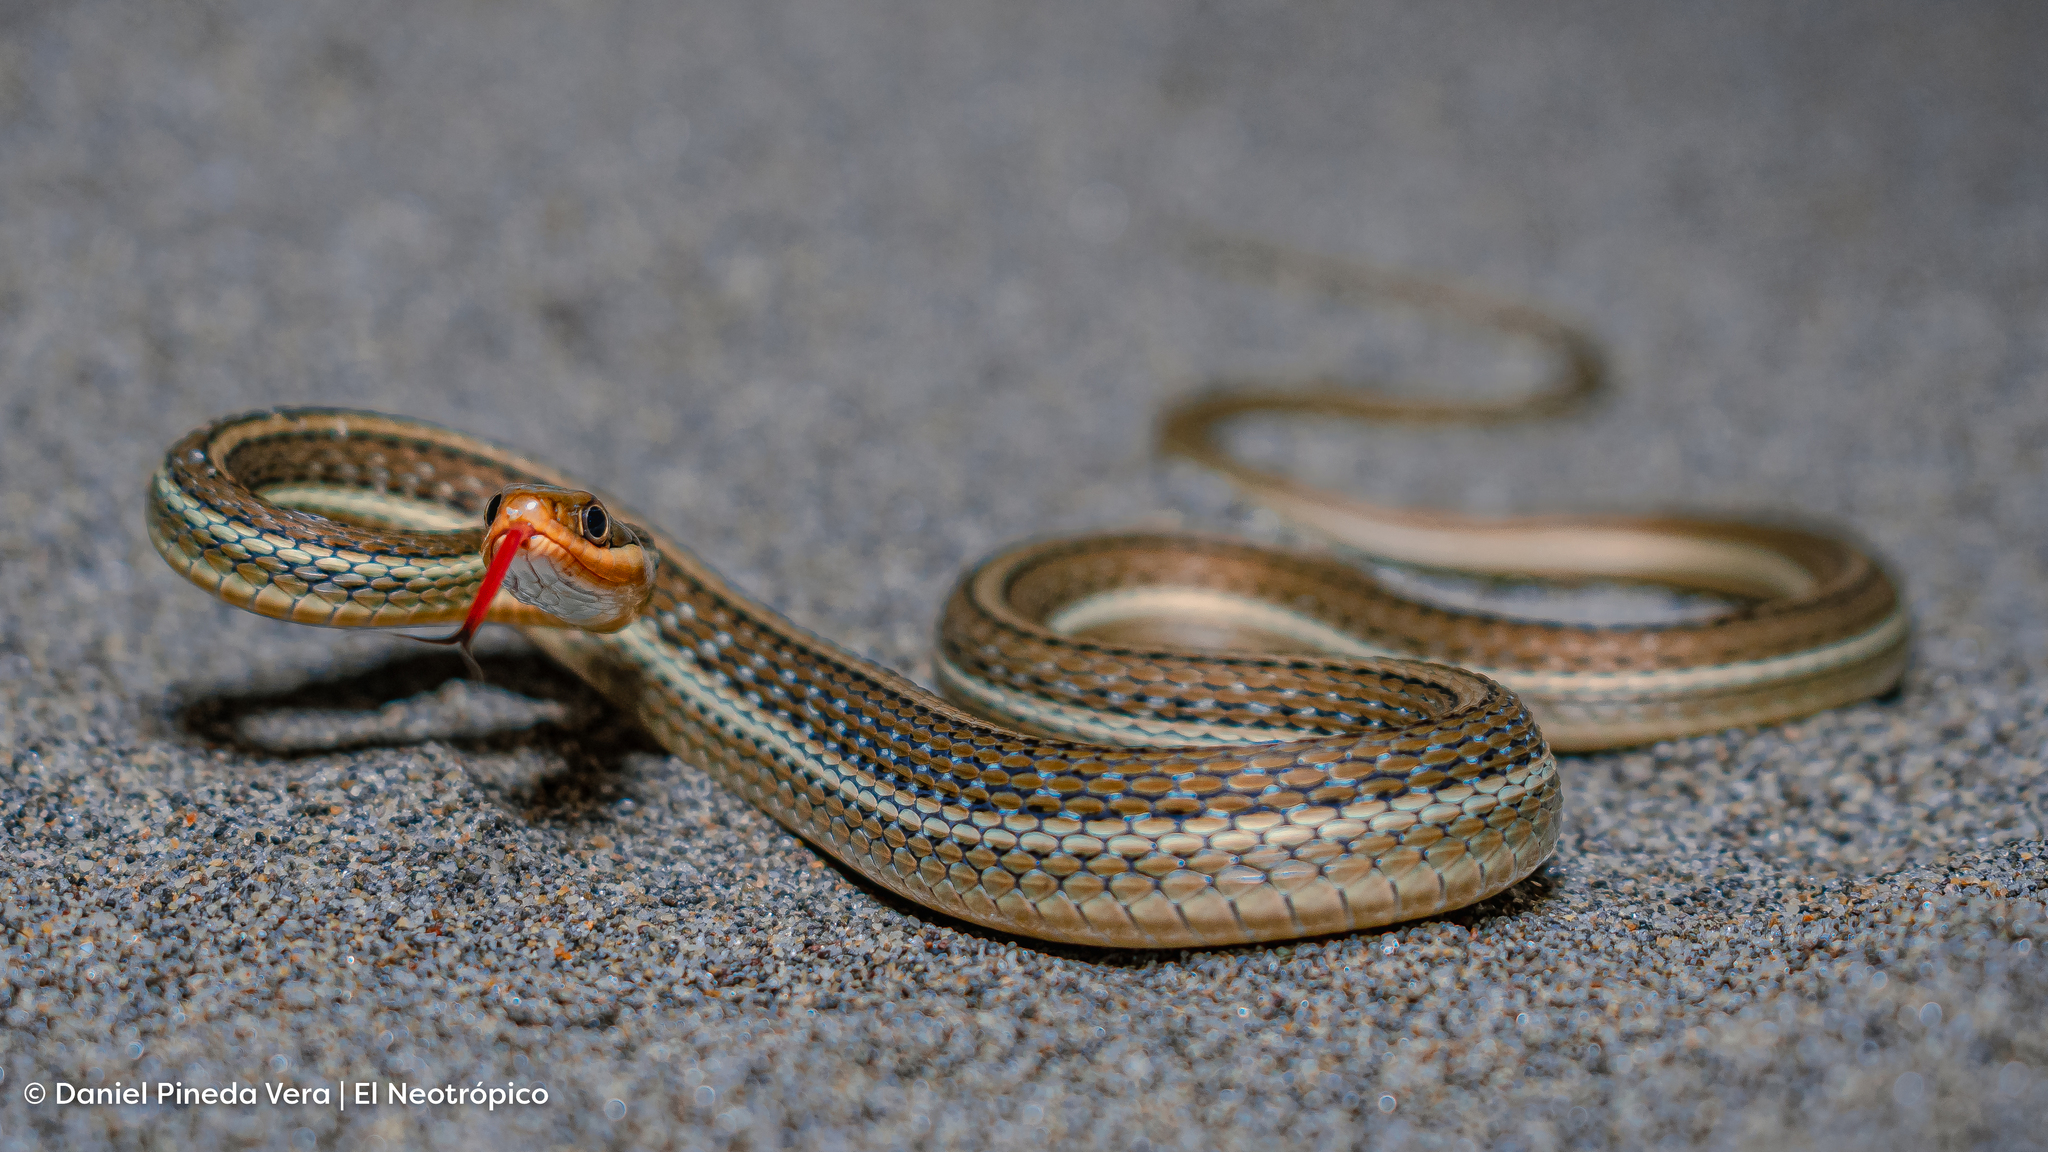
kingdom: Animalia
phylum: Chordata
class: Squamata
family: Colubridae
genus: Thamnophis
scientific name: Thamnophis proximus
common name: Western ribbon snake
